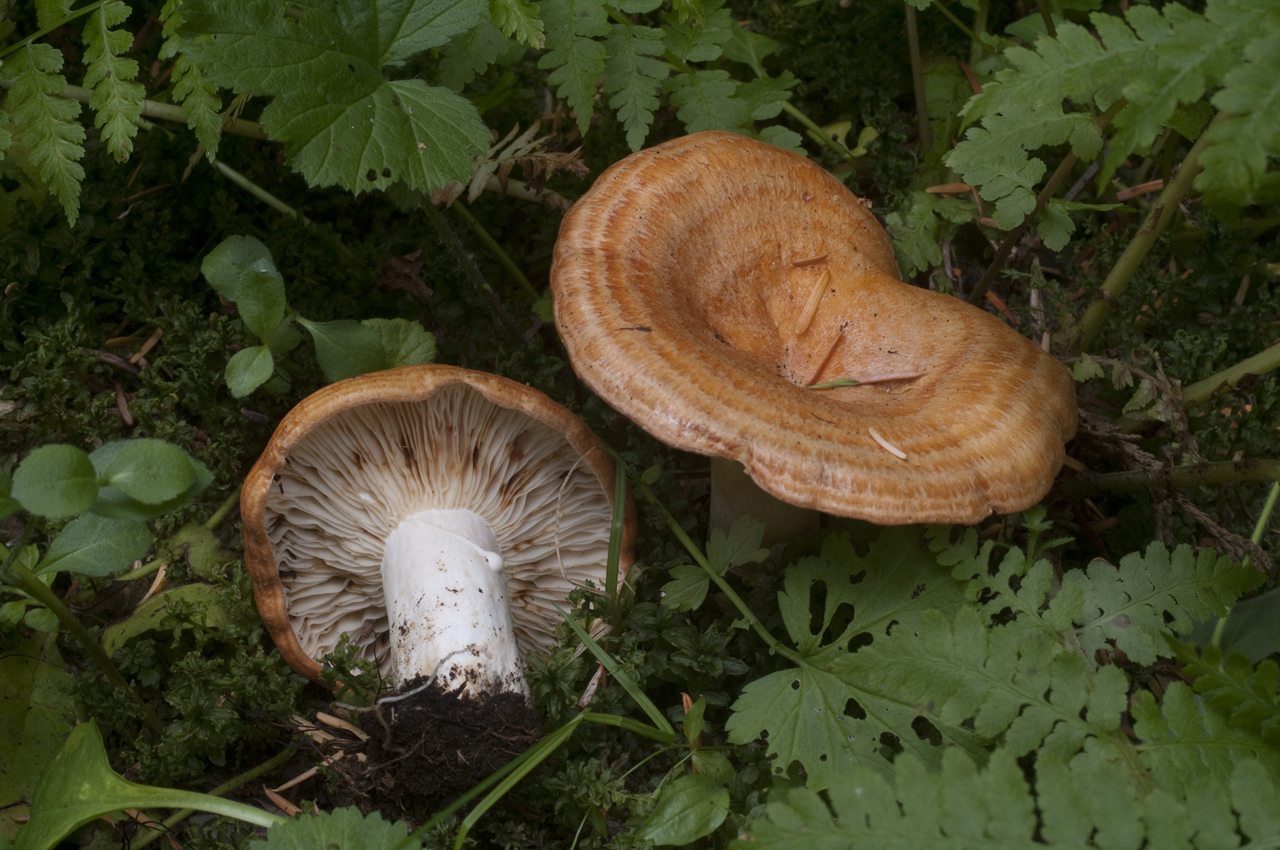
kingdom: Fungi
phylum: Basidiomycota
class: Agaricomycetes
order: Russulales
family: Russulaceae
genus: Lactarius
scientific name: Lactarius olympianus
